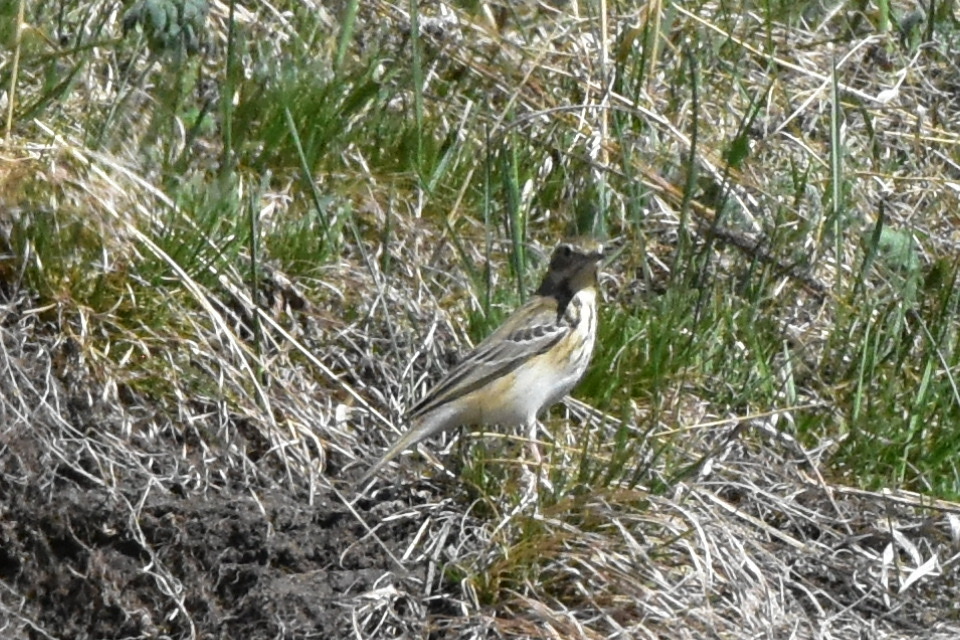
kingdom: Animalia
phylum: Chordata
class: Aves
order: Passeriformes
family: Motacillidae
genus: Anthus
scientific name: Anthus trivialis
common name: Tree pipit
